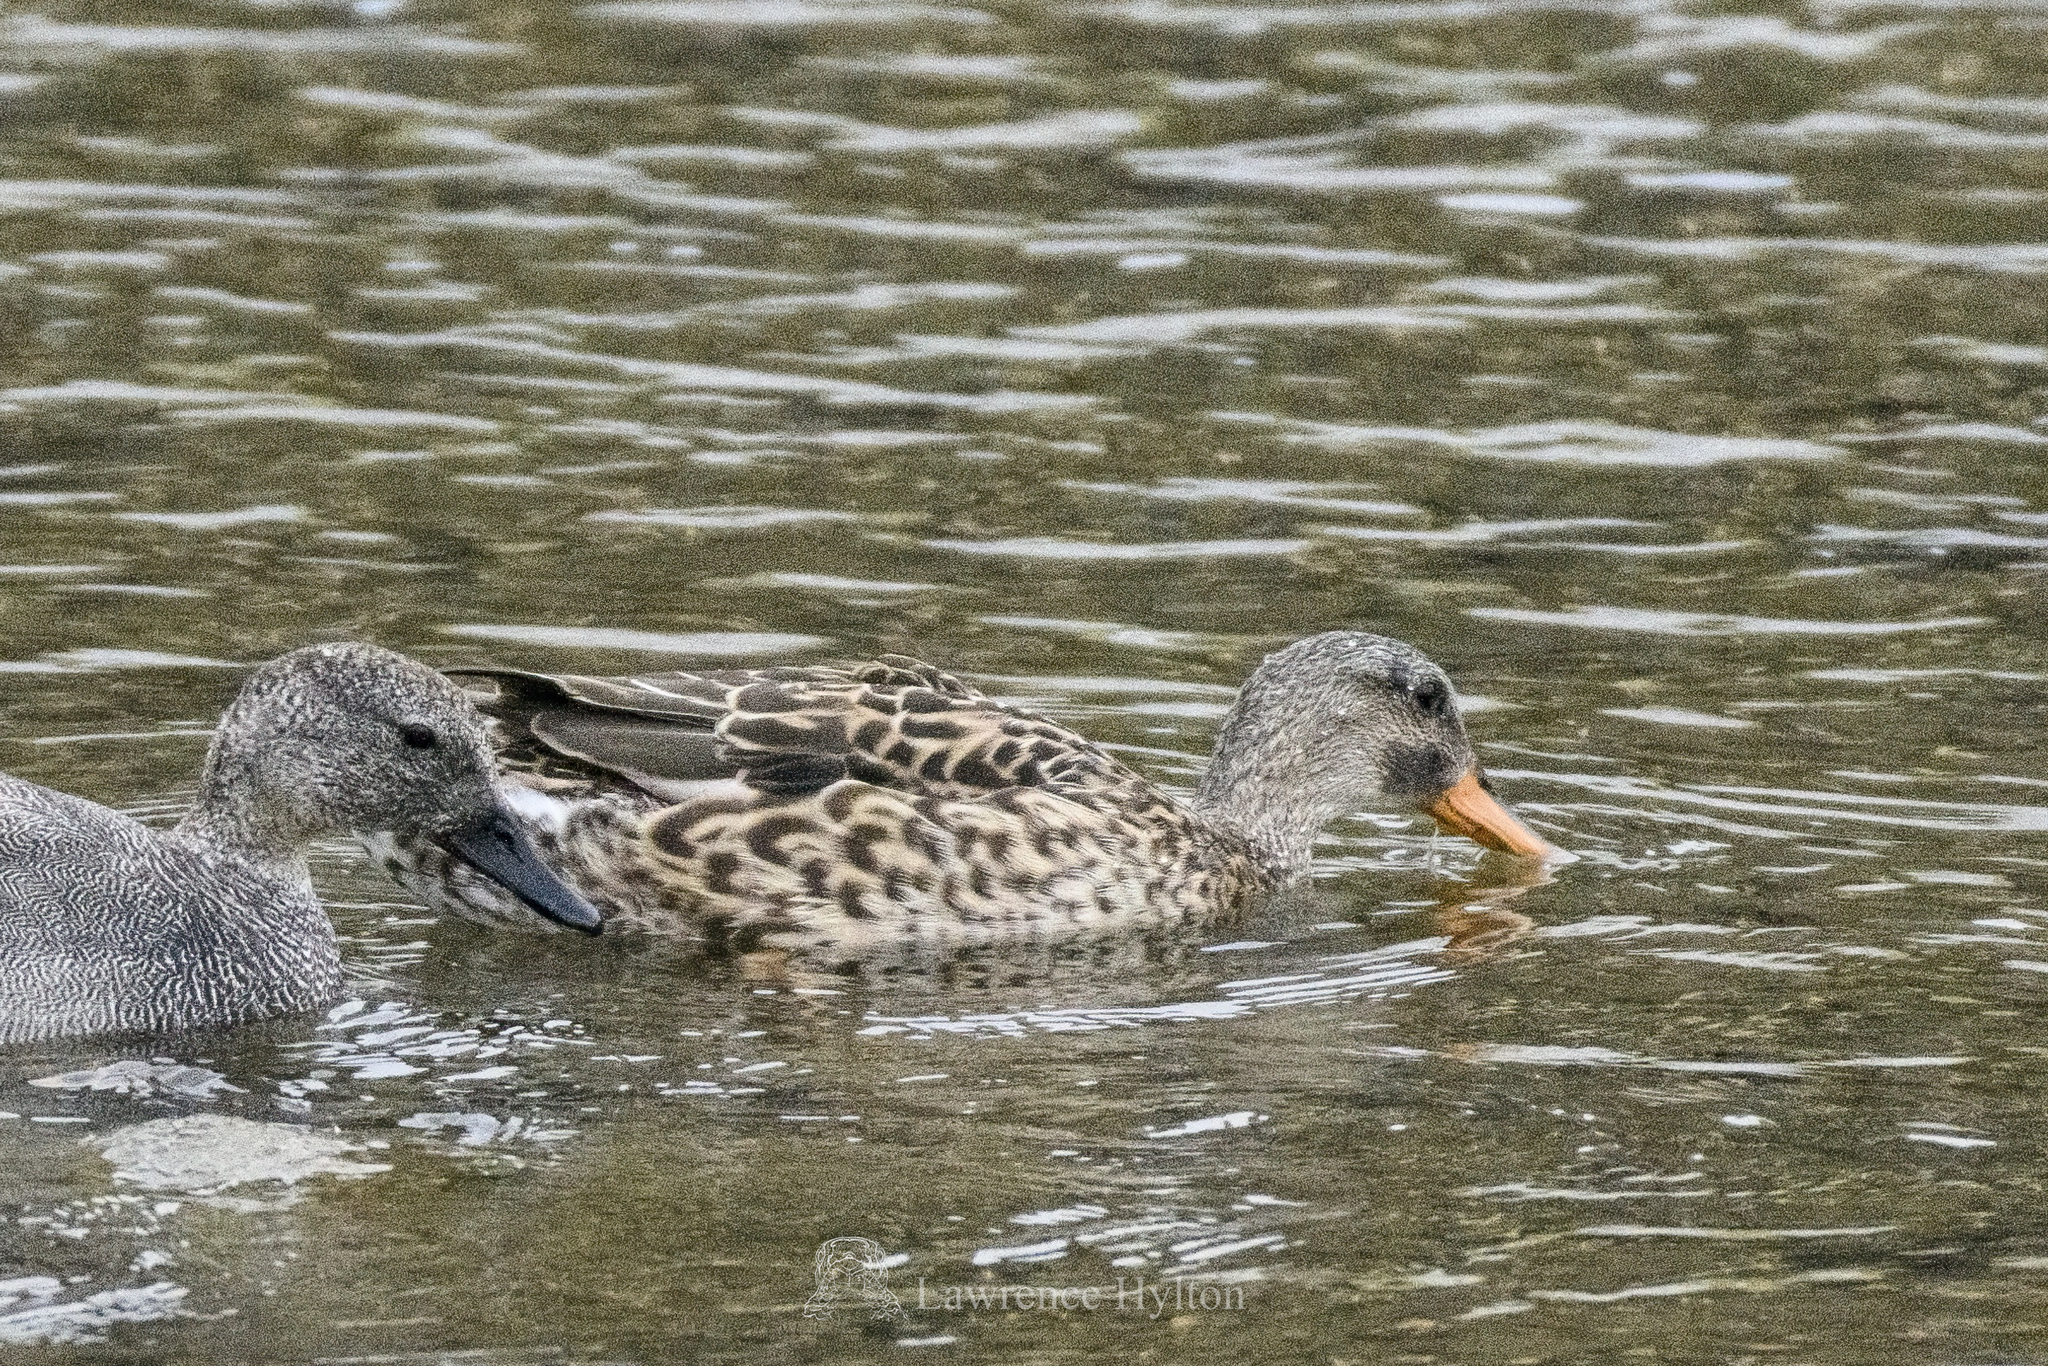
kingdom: Animalia
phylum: Chordata
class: Aves
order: Anseriformes
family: Anatidae
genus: Mareca
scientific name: Mareca strepera
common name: Gadwall
